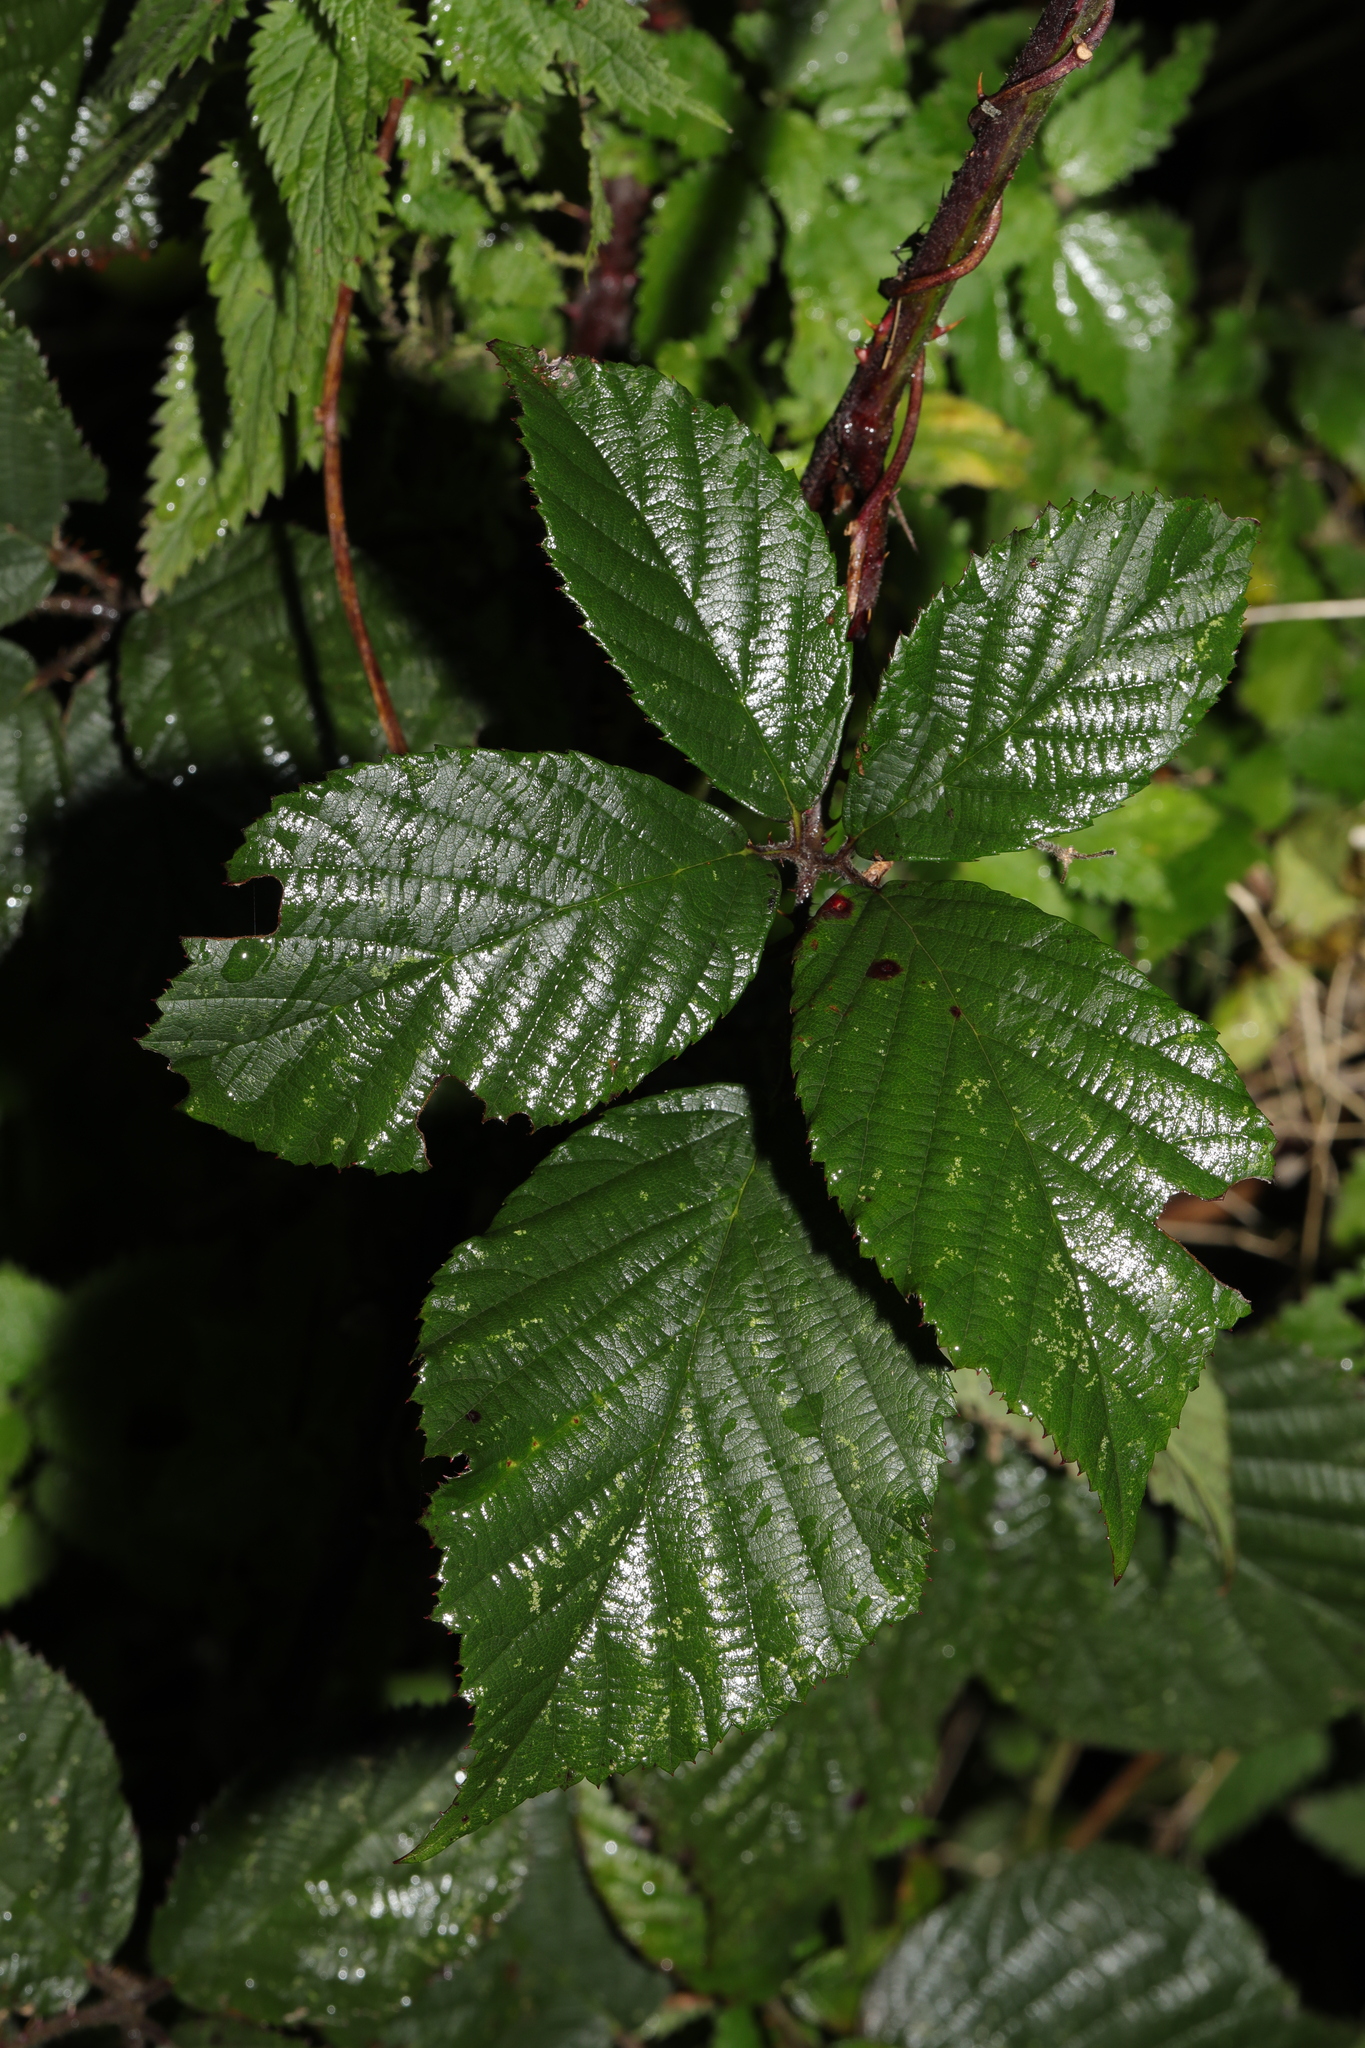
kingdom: Plantae
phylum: Tracheophyta
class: Magnoliopsida
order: Rosales
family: Rosaceae
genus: Rubus
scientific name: Rubus subtercanens
